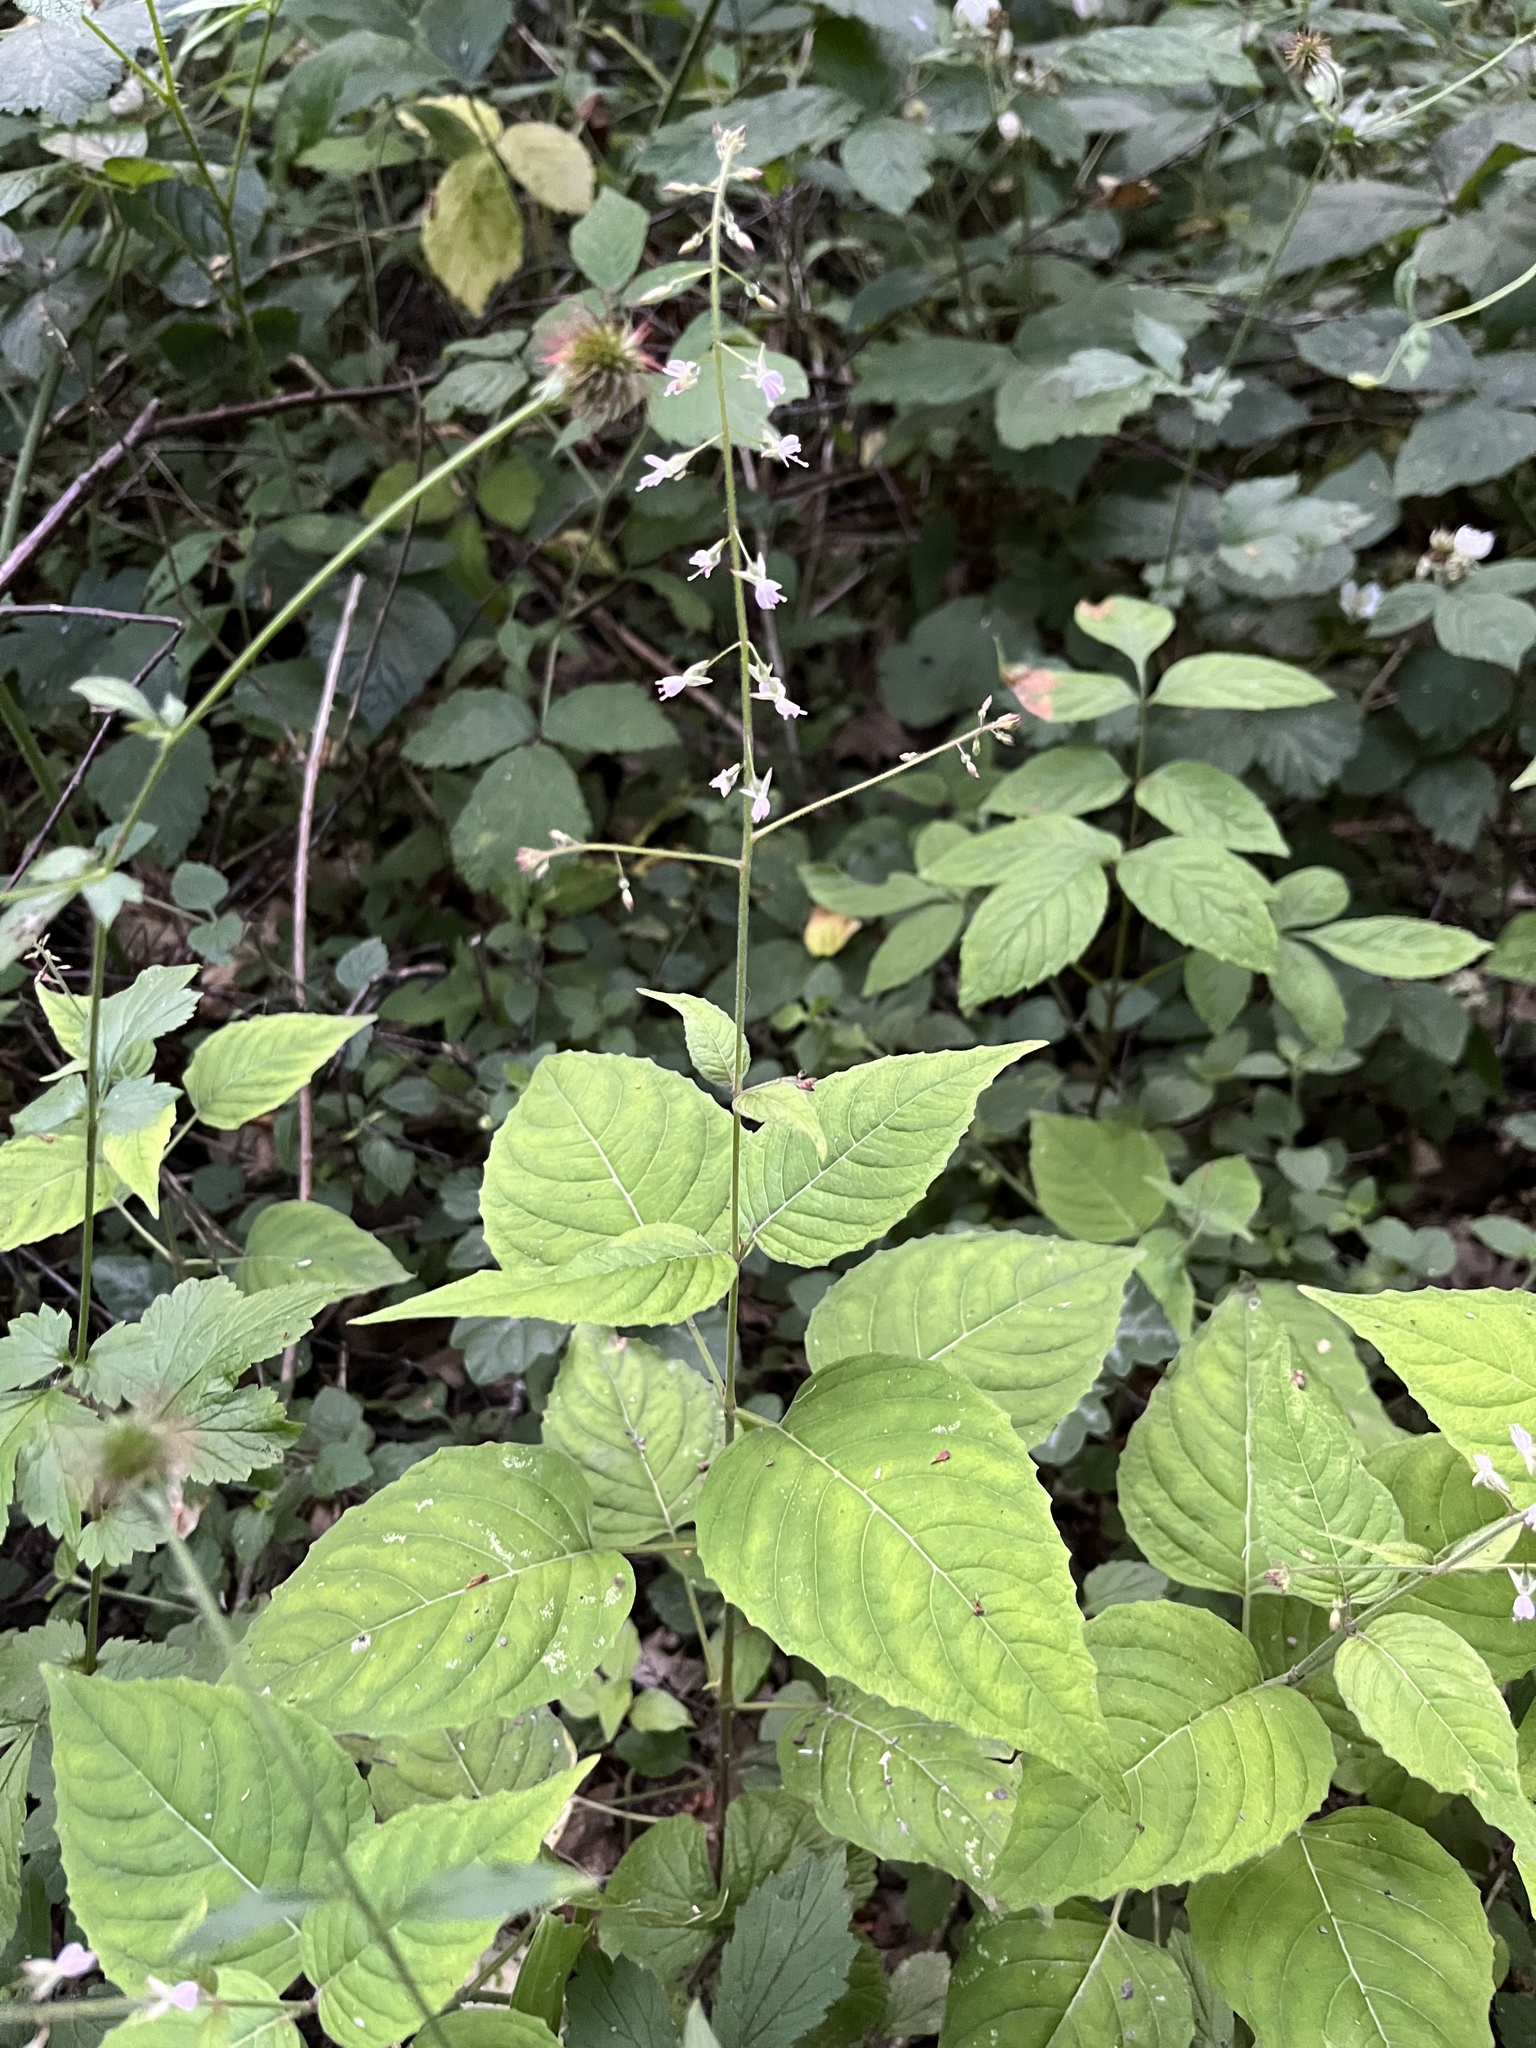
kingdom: Plantae
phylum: Tracheophyta
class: Magnoliopsida
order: Myrtales
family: Onagraceae
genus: Circaea
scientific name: Circaea lutetiana
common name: Enchanter's-nightshade
